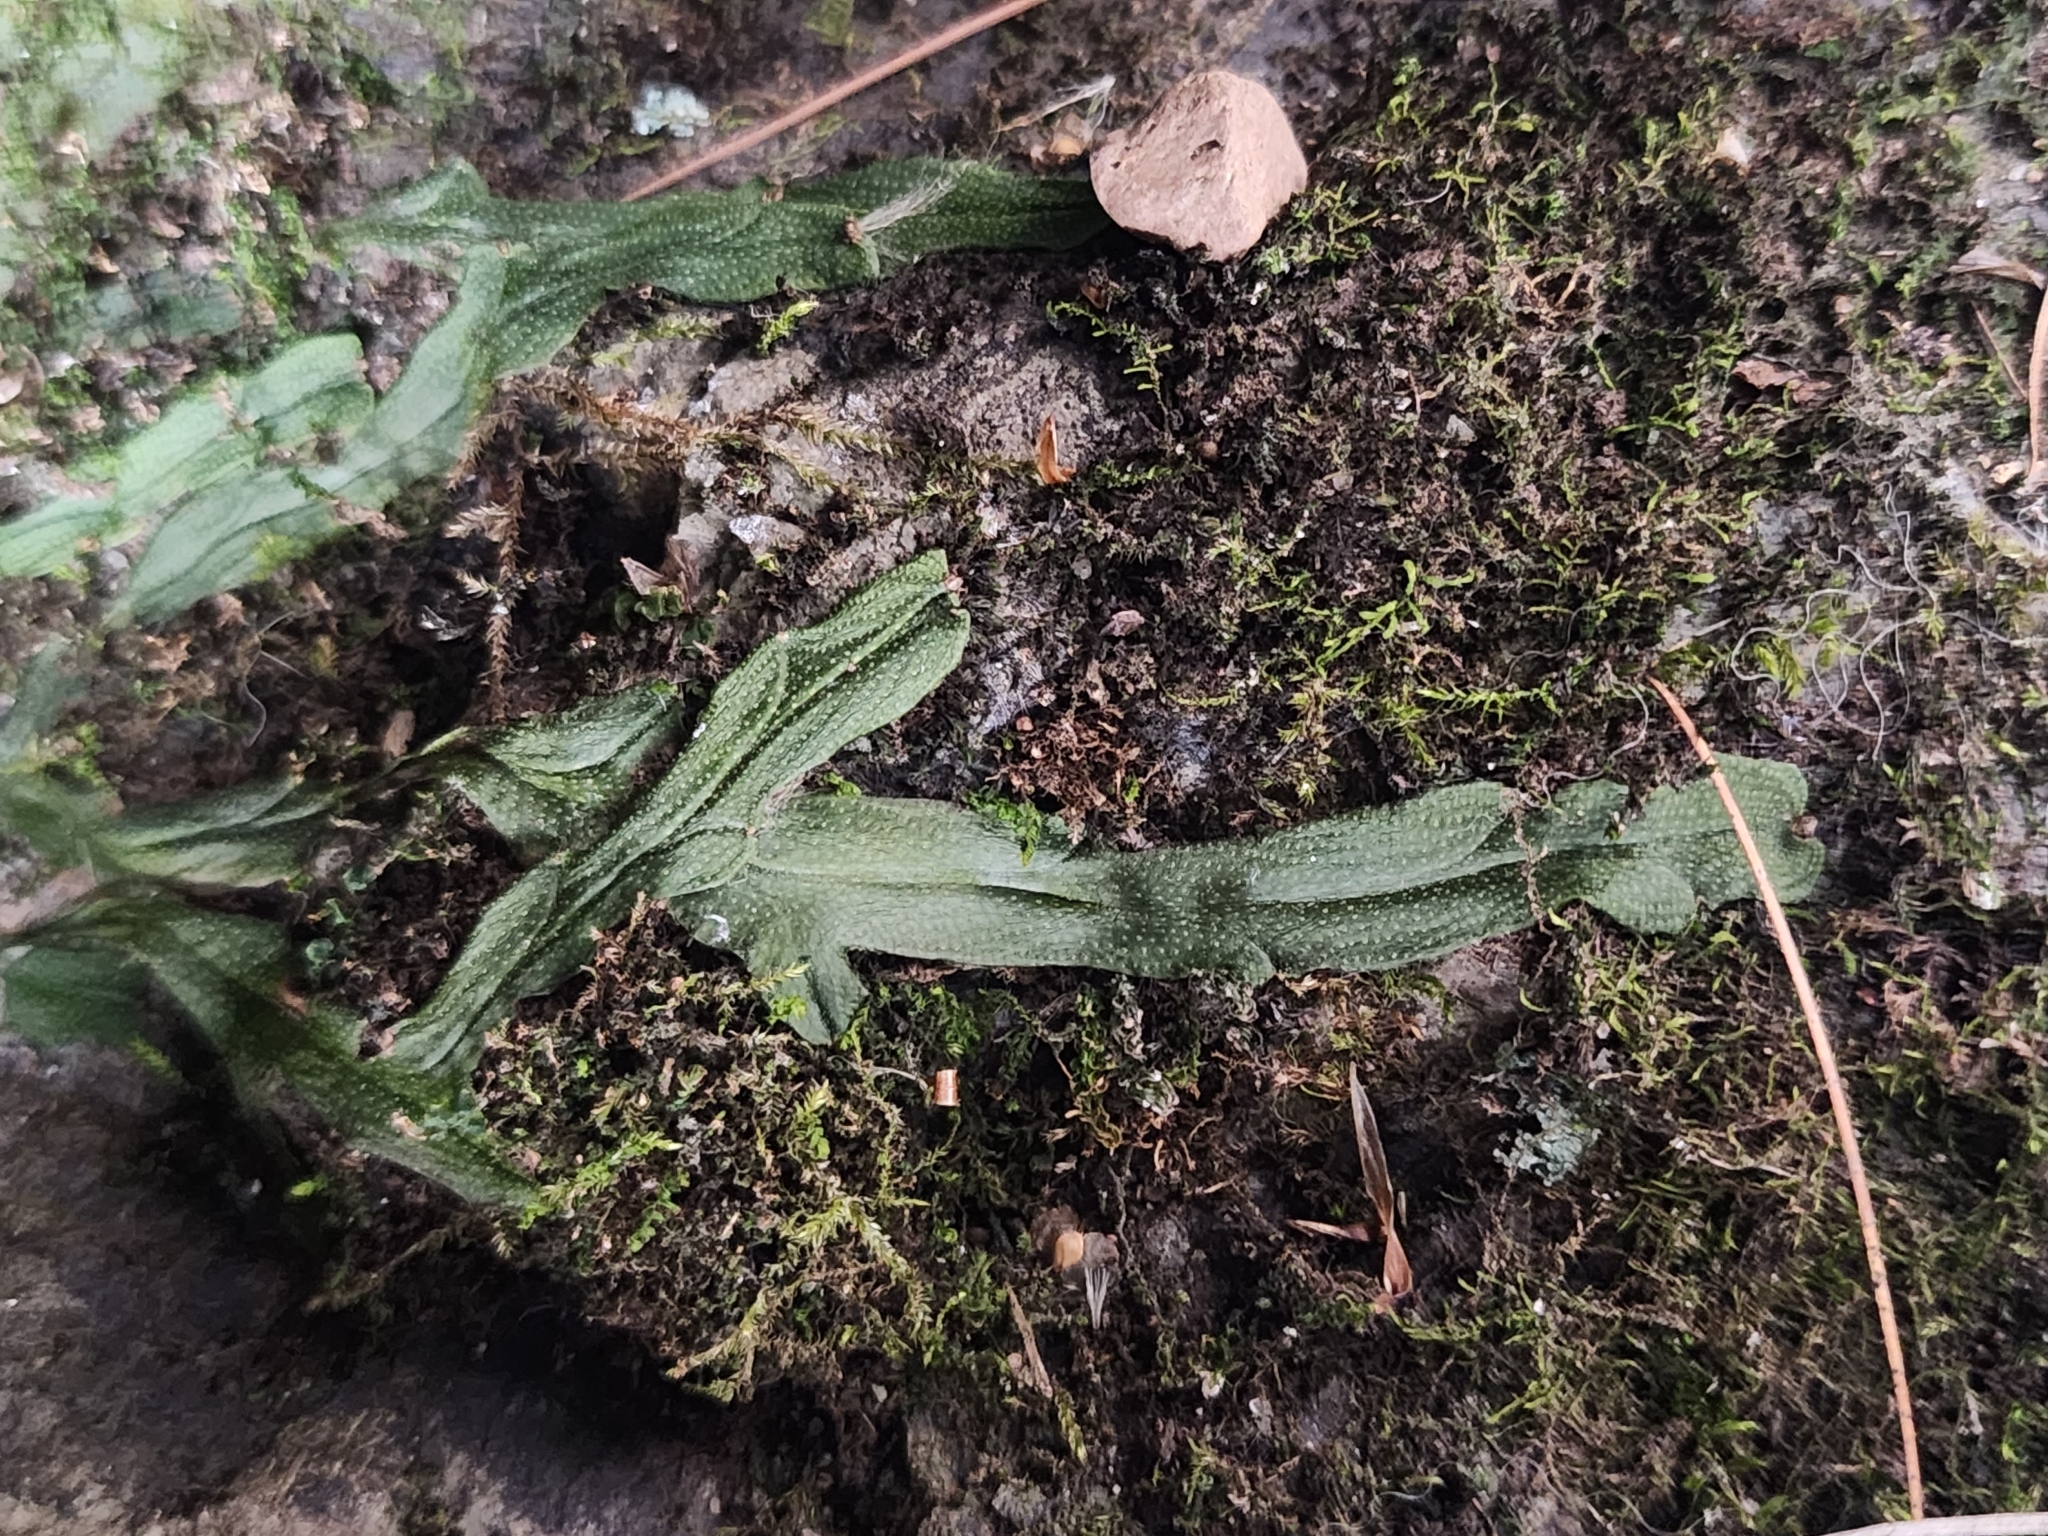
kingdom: Plantae
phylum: Marchantiophyta
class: Marchantiopsida
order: Marchantiales
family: Conocephalaceae
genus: Conocephalum
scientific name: Conocephalum salebrosum
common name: Cat-tongue liverwort
